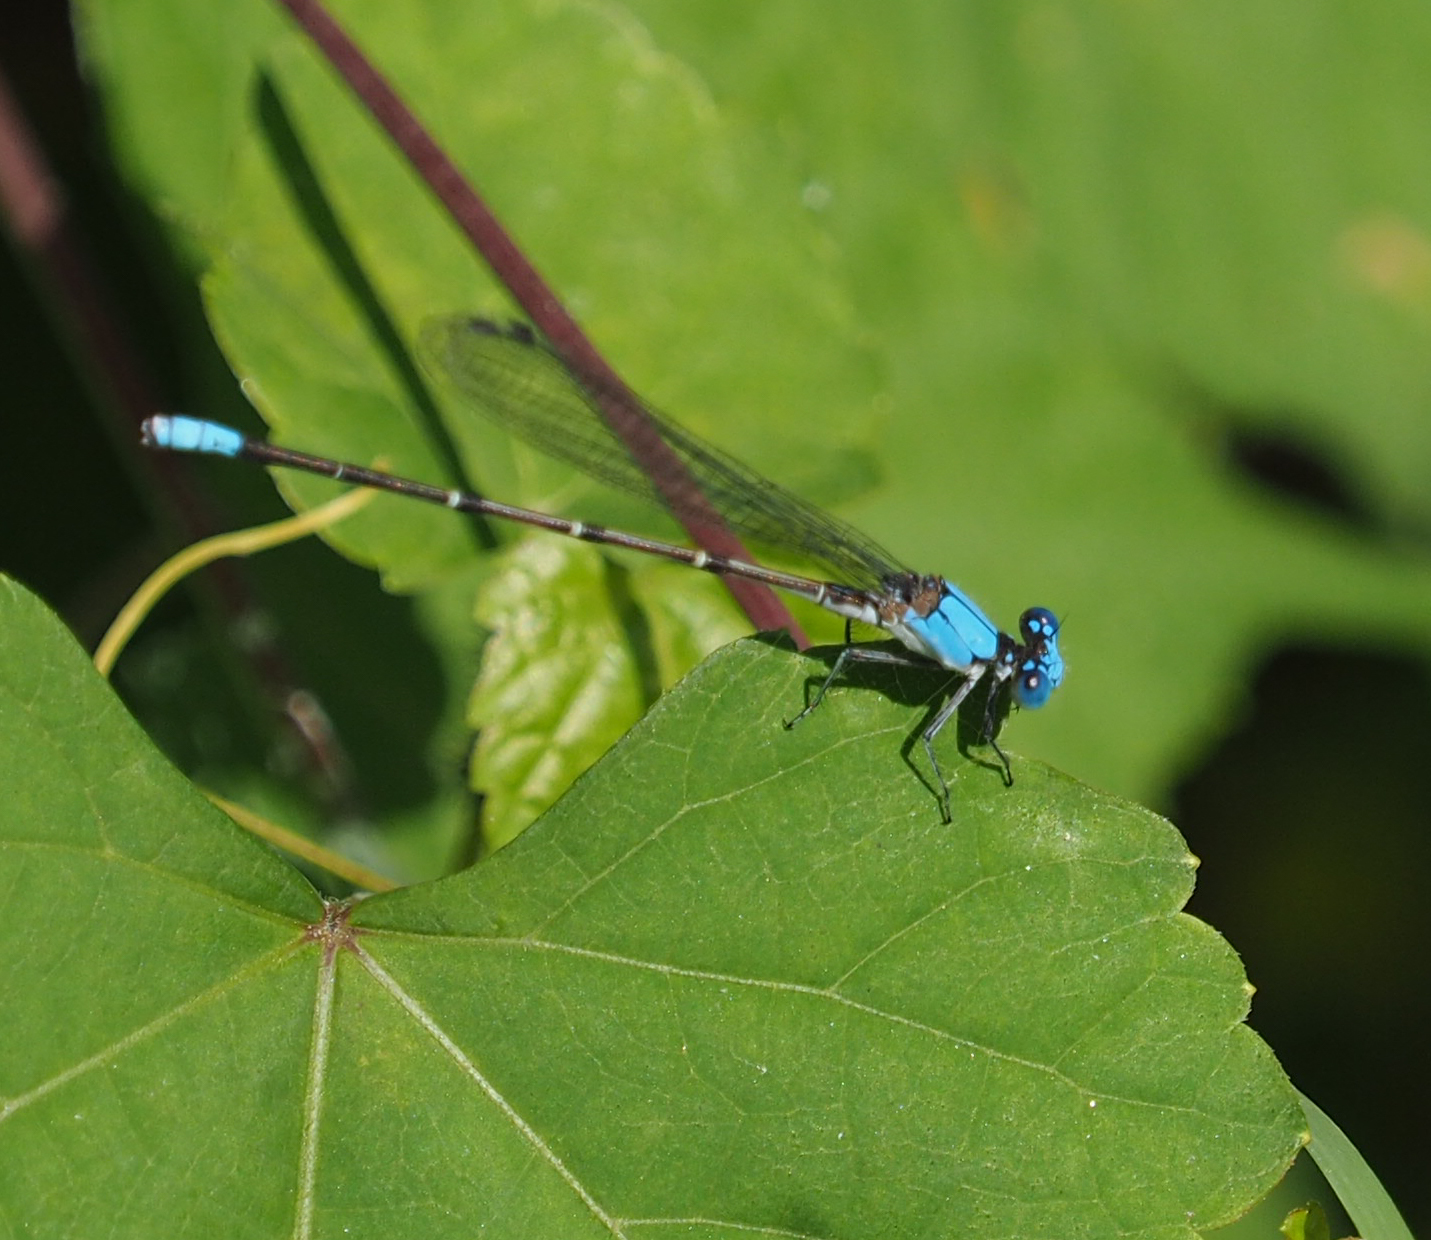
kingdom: Animalia
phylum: Arthropoda
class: Insecta
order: Odonata
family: Coenagrionidae
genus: Argia
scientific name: Argia apicalis
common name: Blue-fronted dancer
